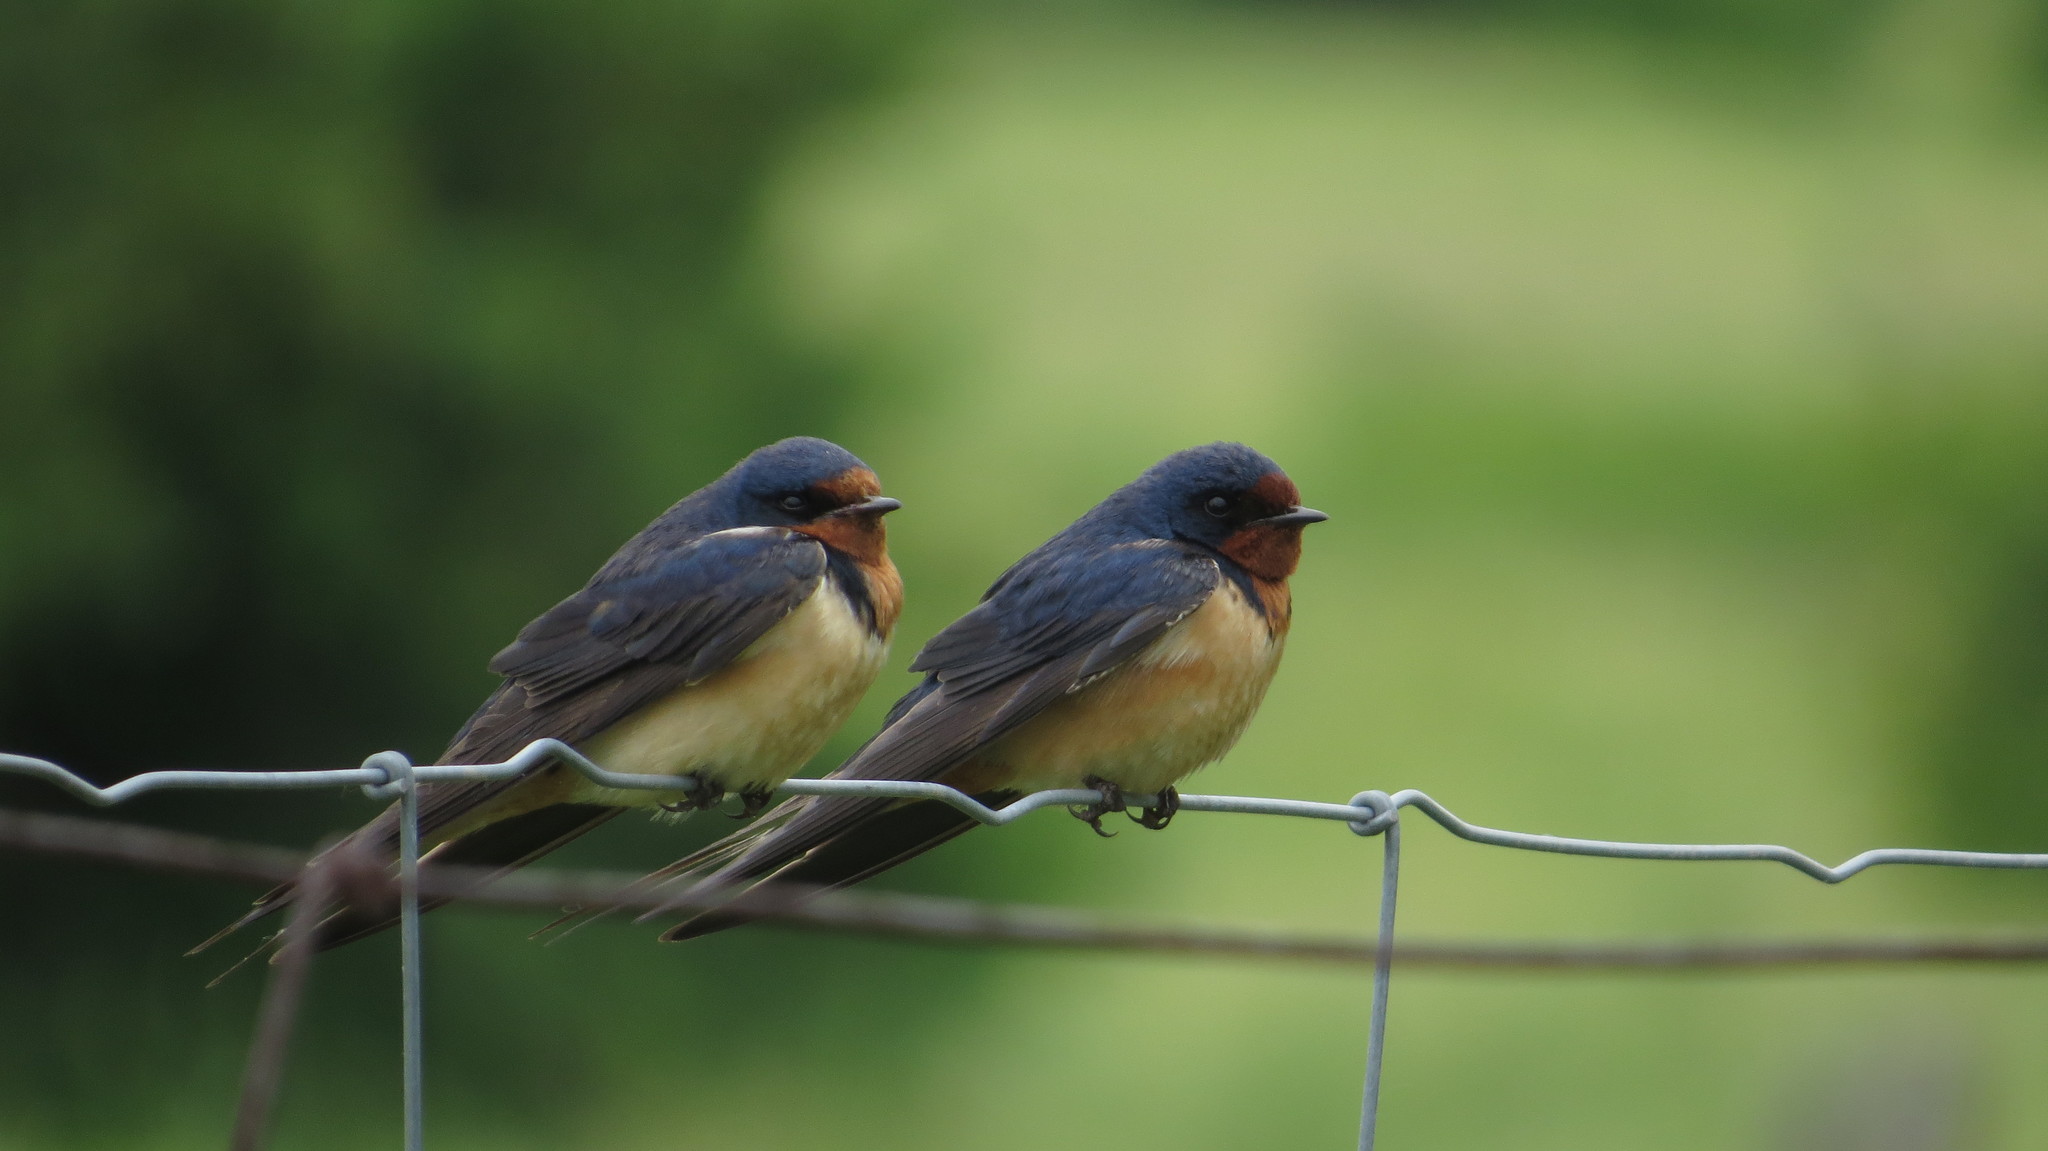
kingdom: Animalia
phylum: Chordata
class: Aves
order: Passeriformes
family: Hirundinidae
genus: Hirundo
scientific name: Hirundo rustica
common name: Barn swallow
